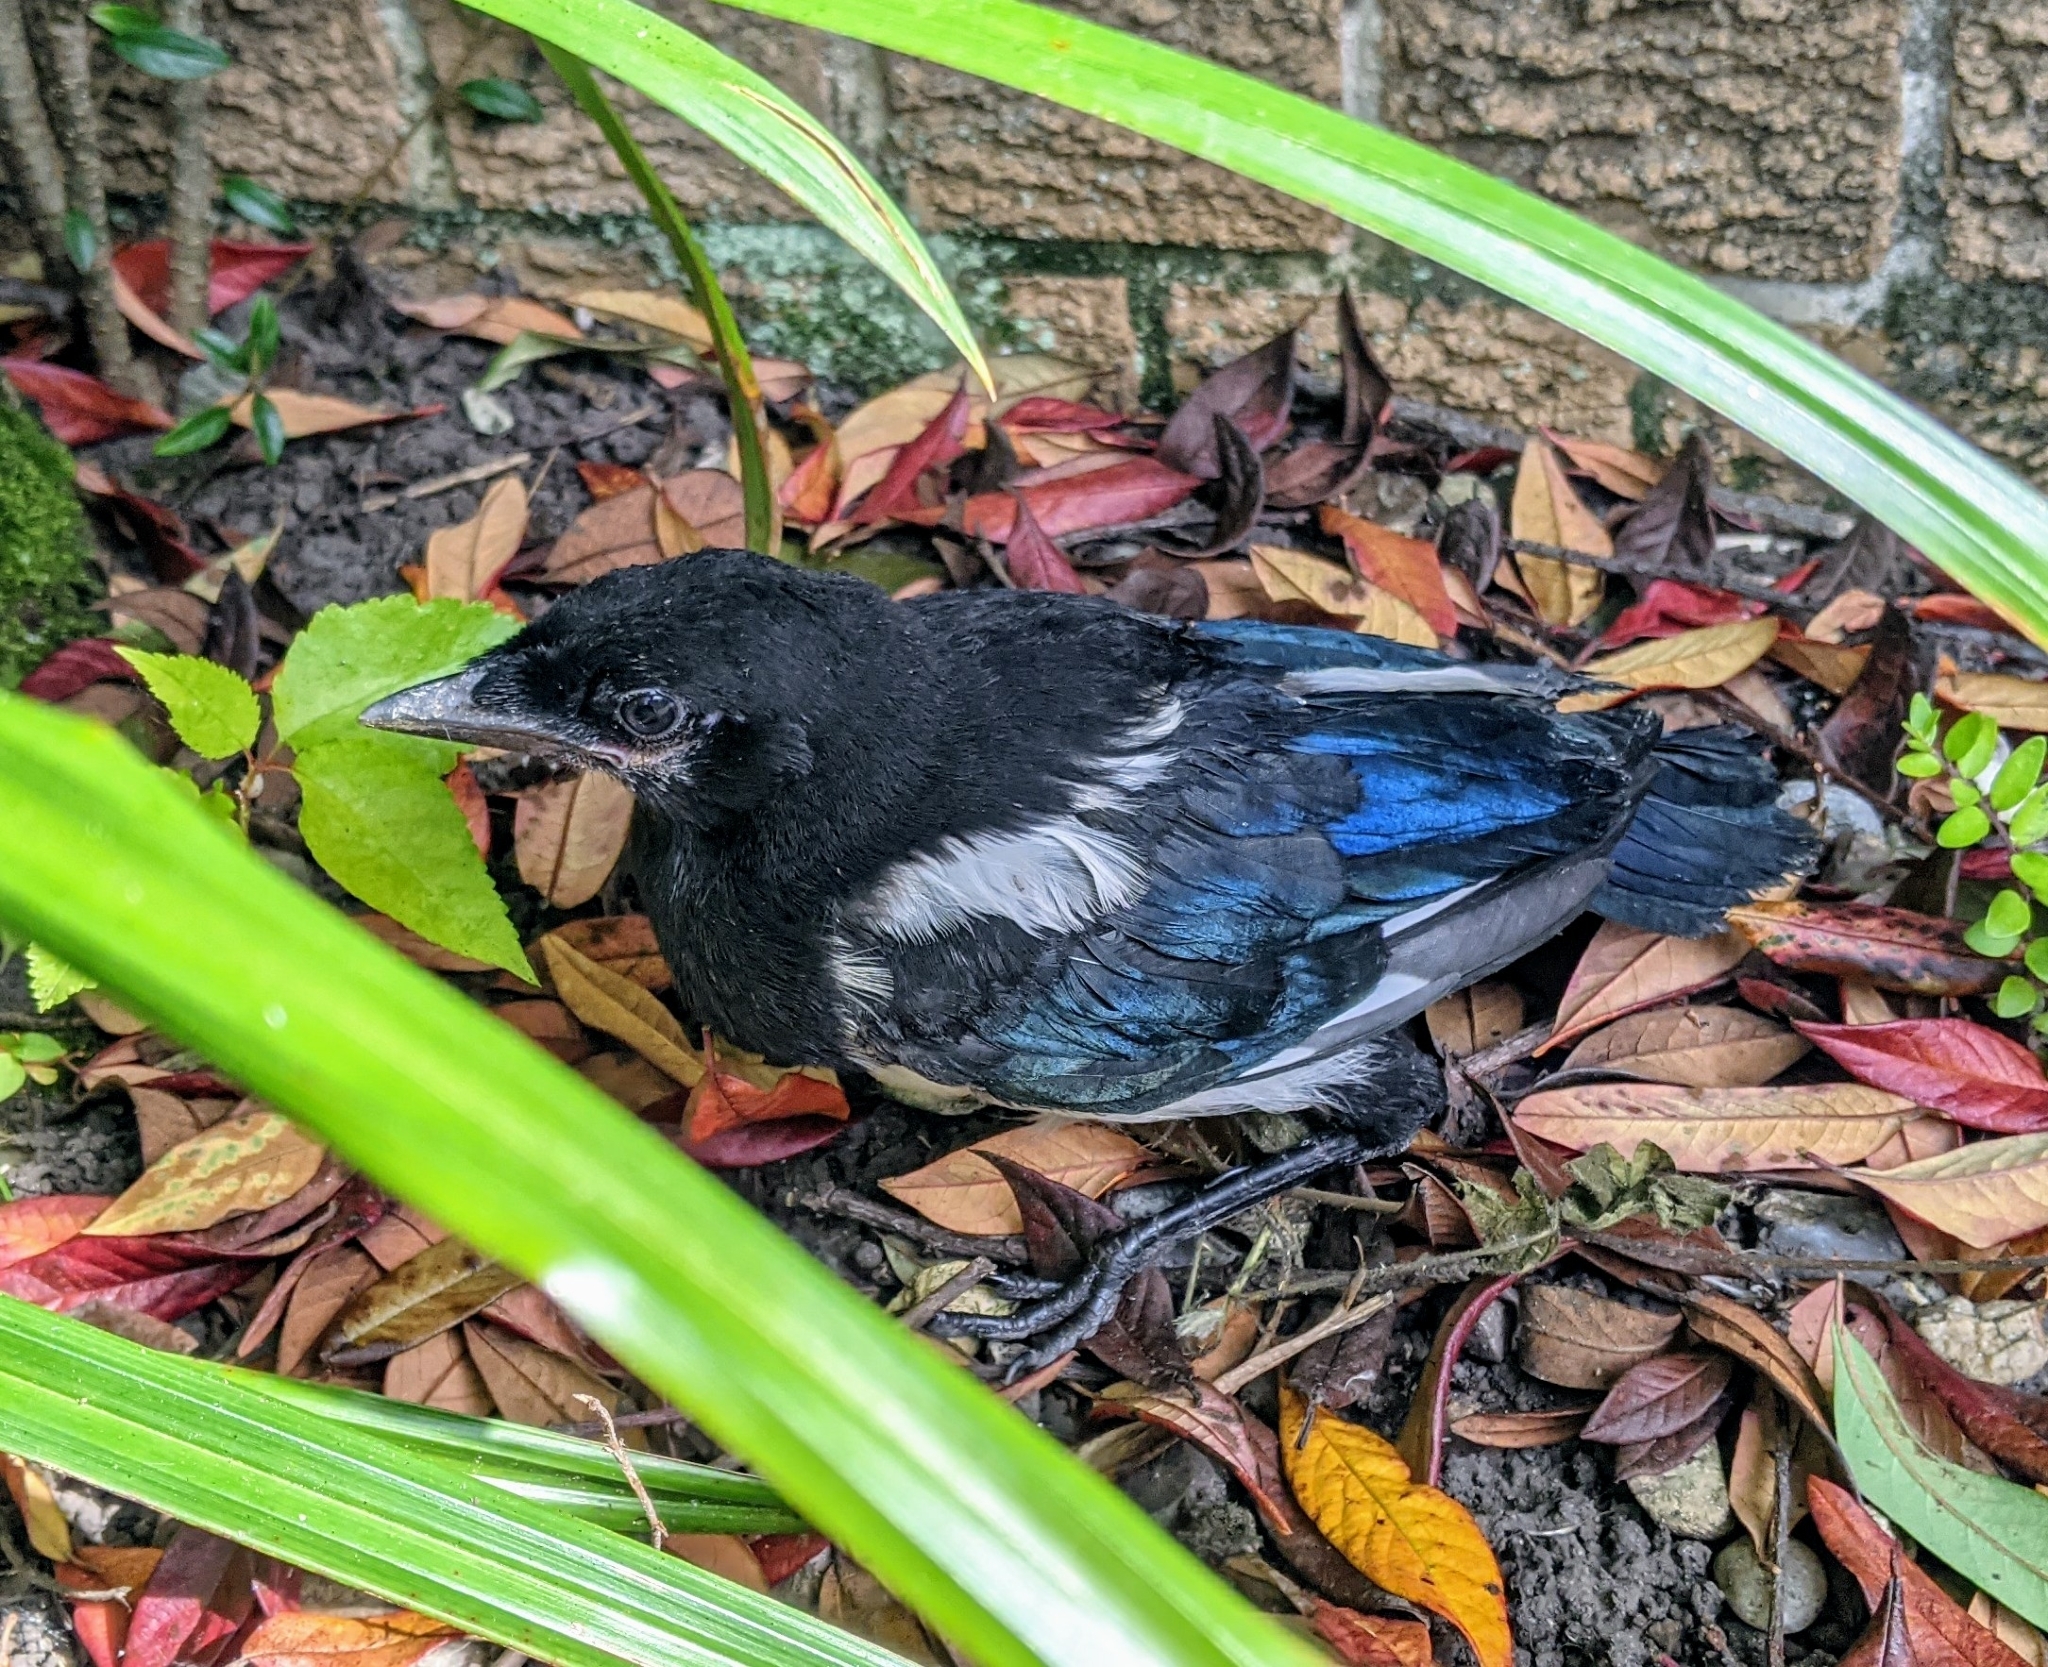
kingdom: Animalia
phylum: Chordata
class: Aves
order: Passeriformes
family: Corvidae
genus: Pica
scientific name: Pica pica
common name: Eurasian magpie
